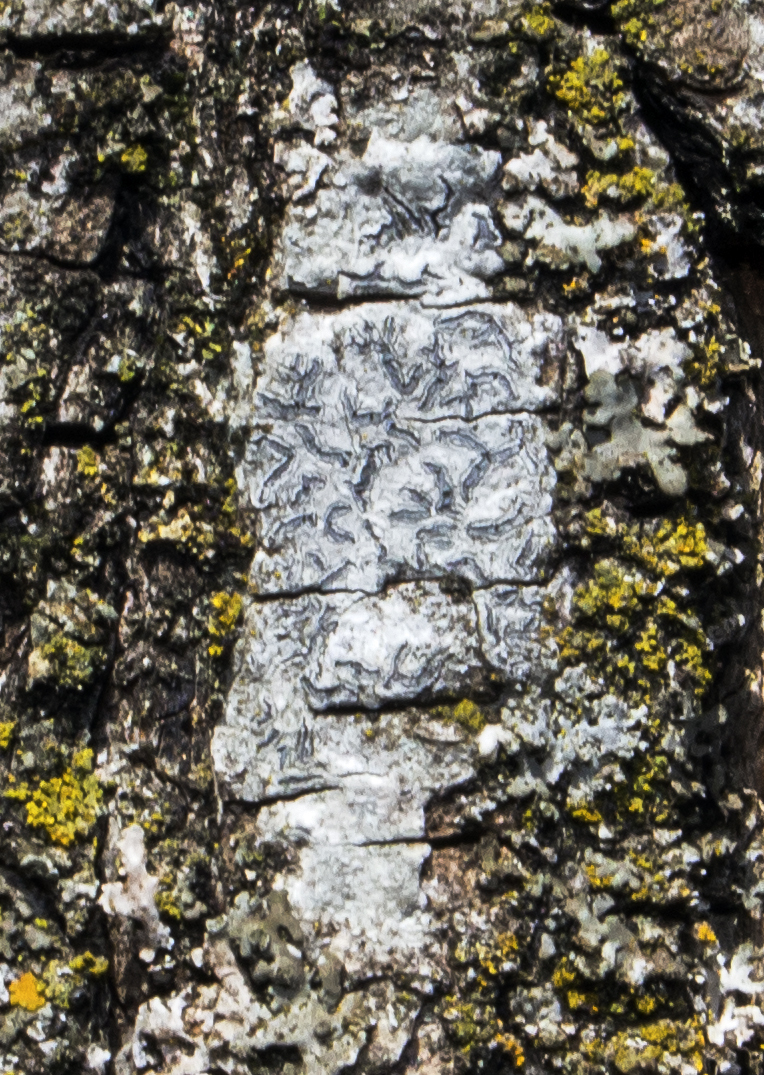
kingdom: Fungi
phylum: Ascomycota
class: Lecanoromycetes
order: Ostropales
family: Graphidaceae
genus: Graphis
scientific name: Graphis scripta
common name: Script lichen
